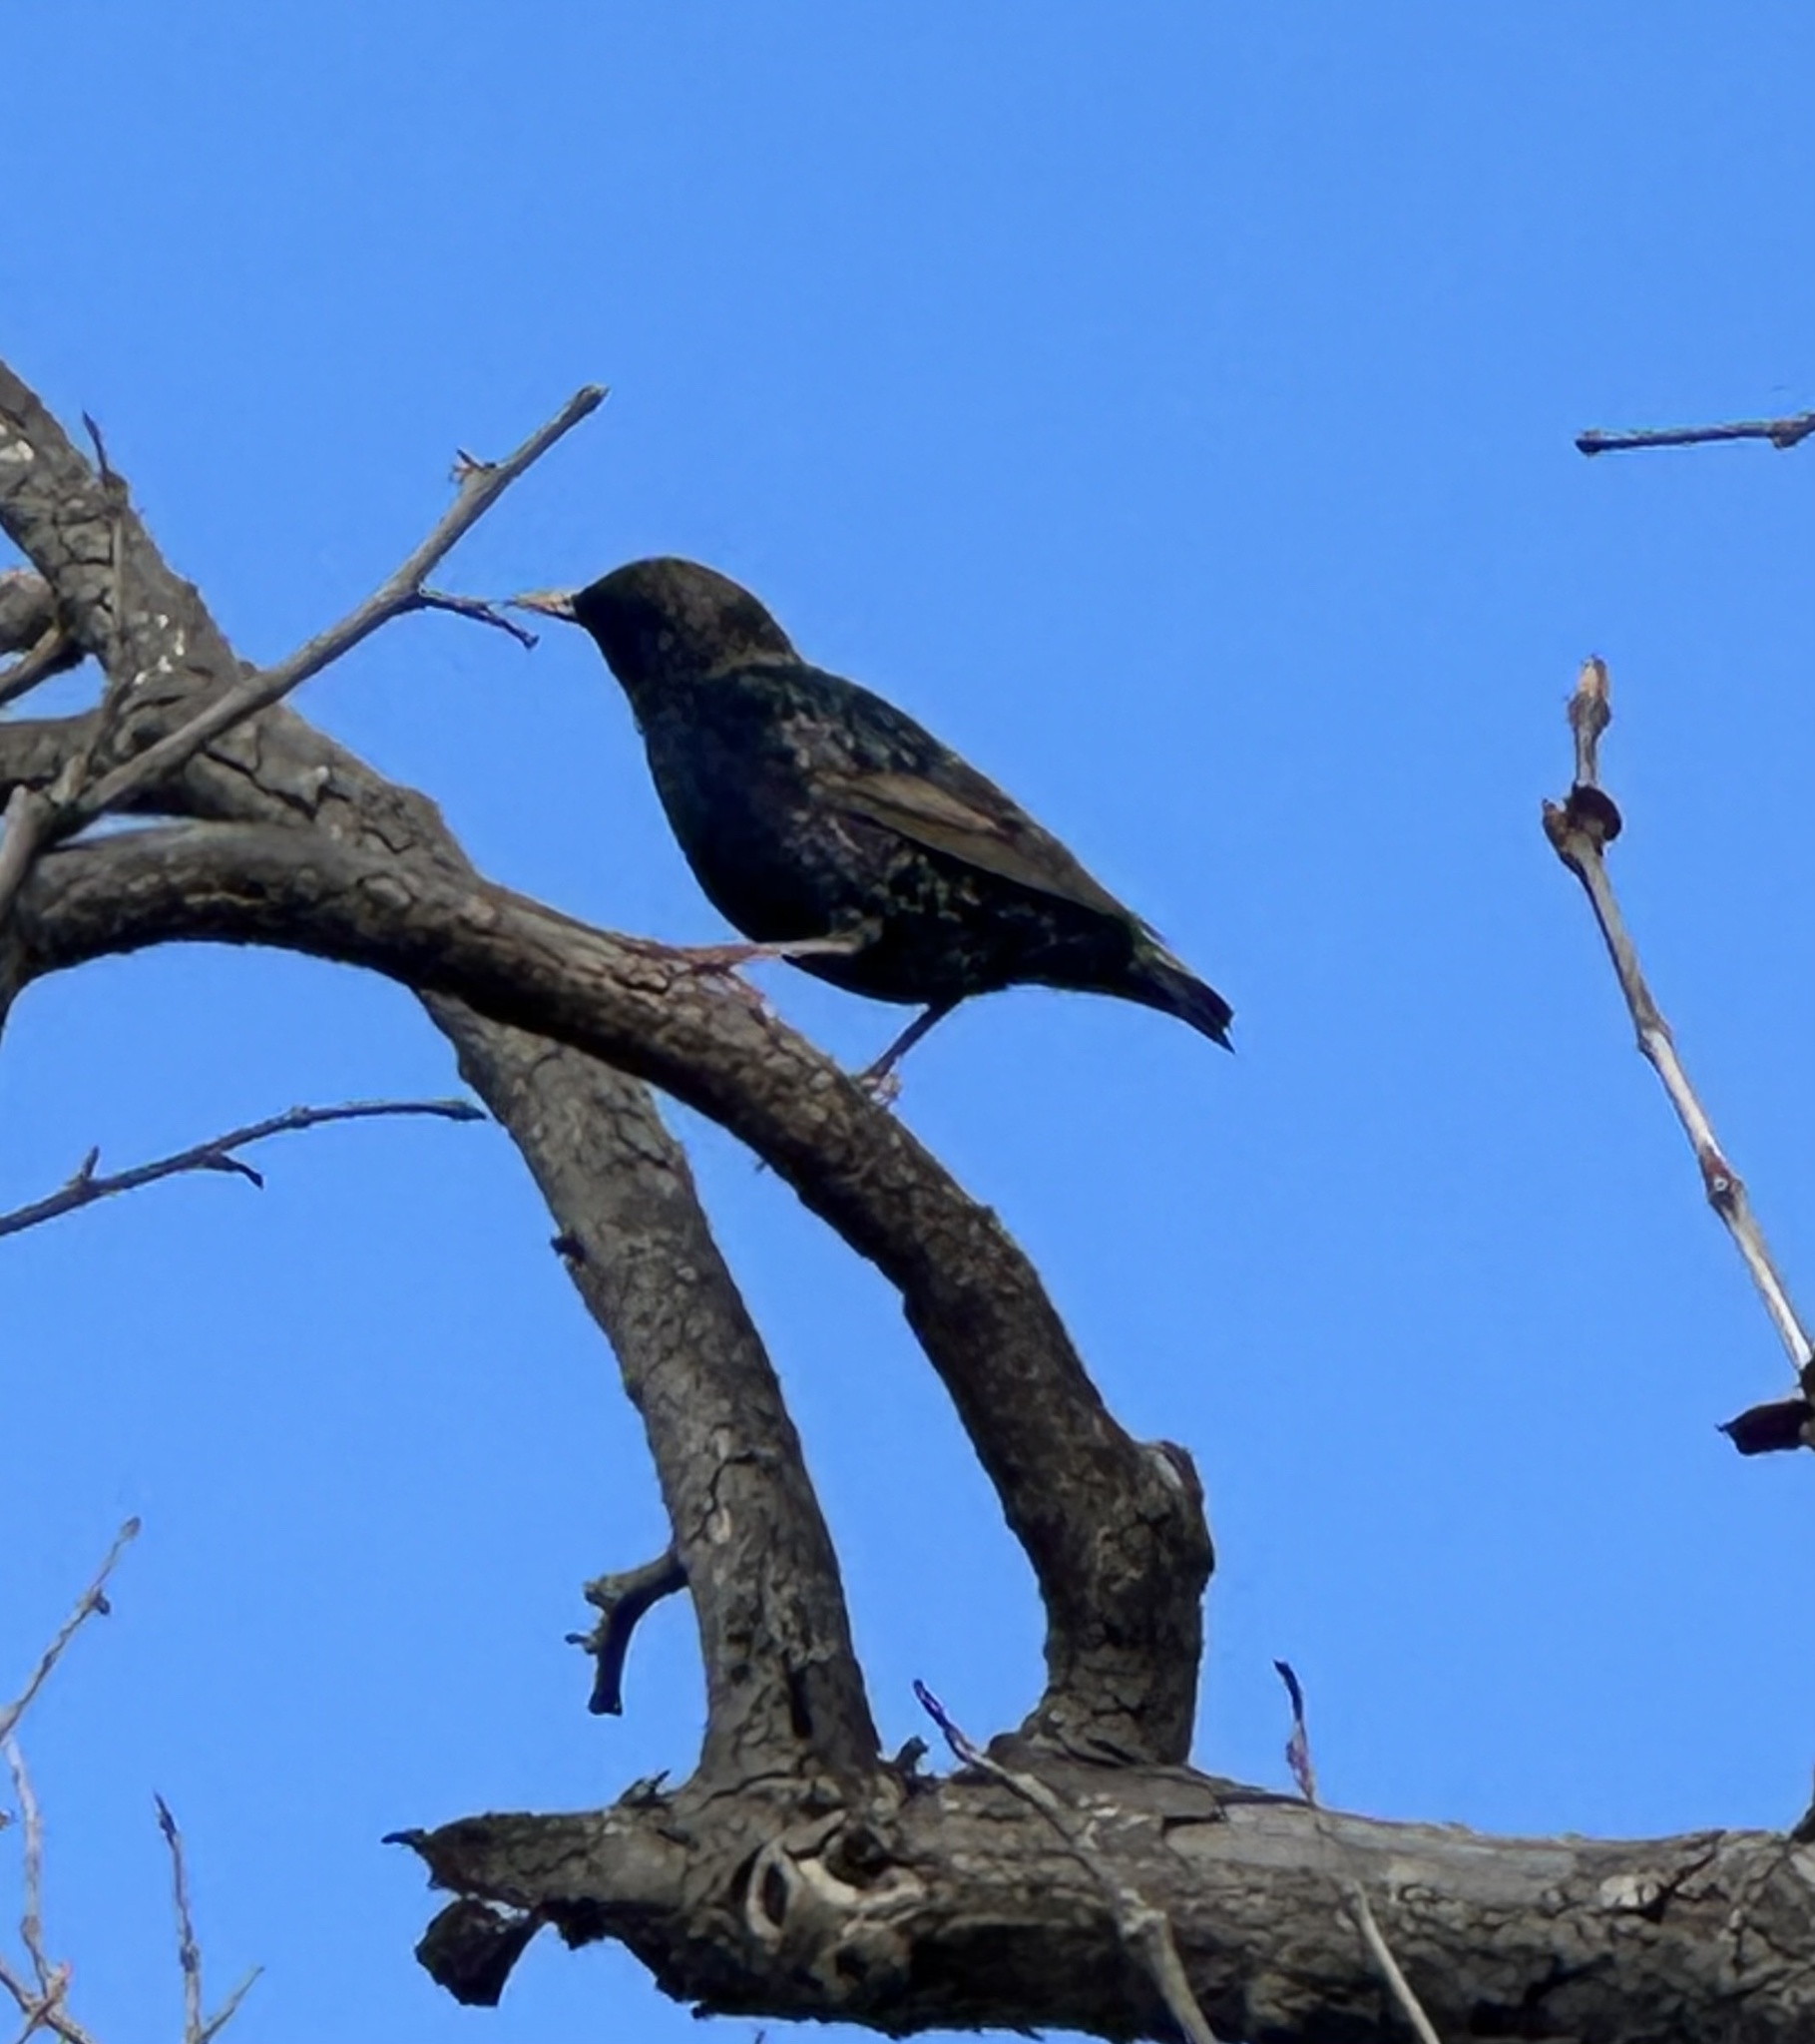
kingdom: Animalia
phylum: Chordata
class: Aves
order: Passeriformes
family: Sturnidae
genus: Sturnus
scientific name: Sturnus vulgaris
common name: Common starling
